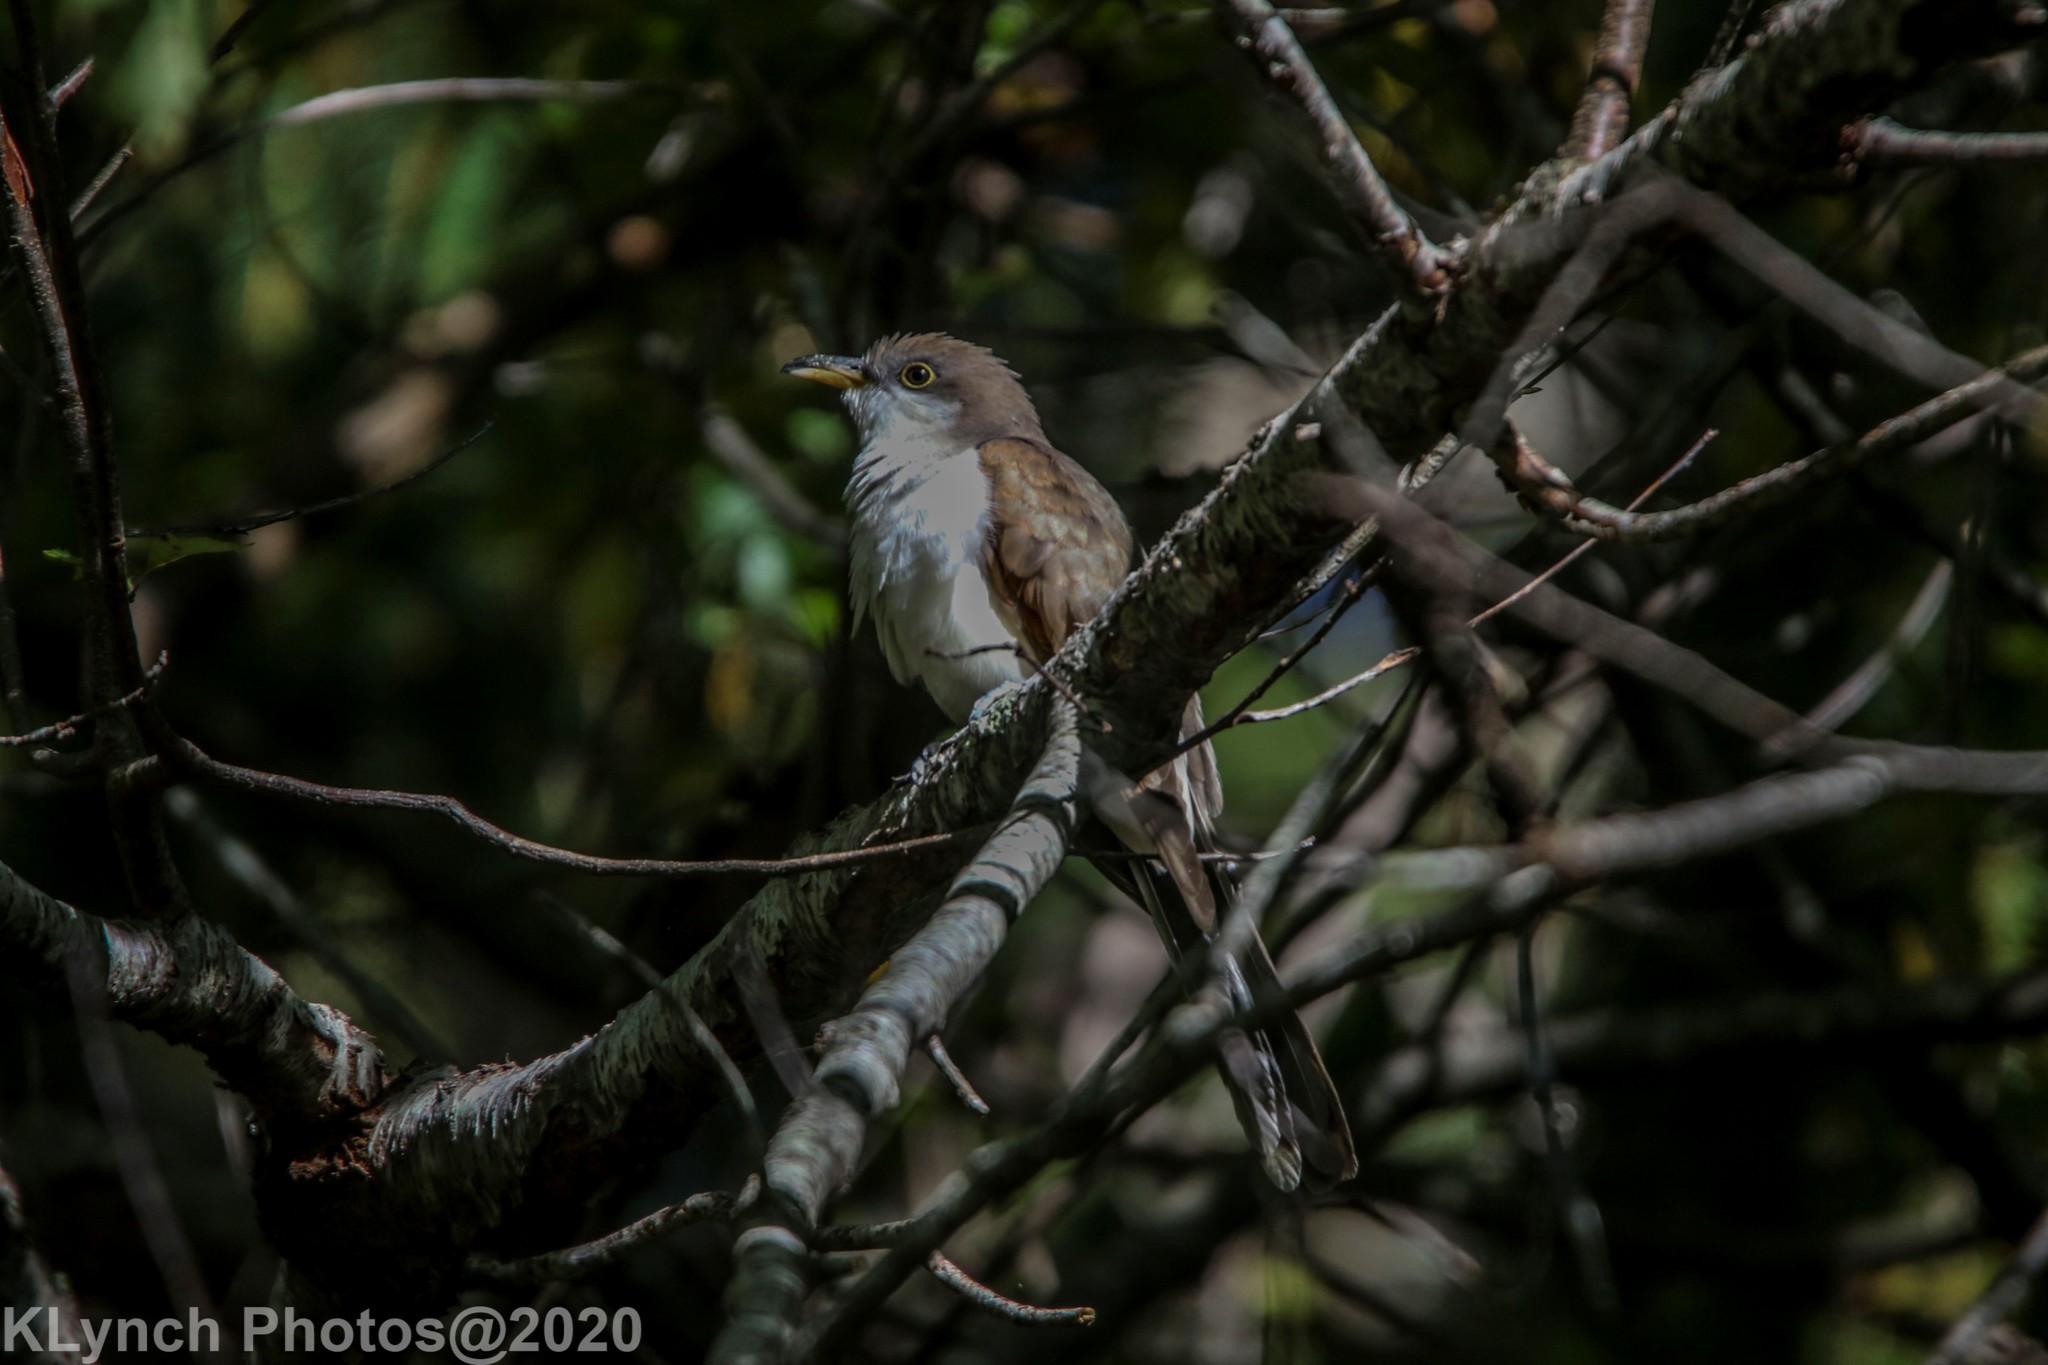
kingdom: Animalia
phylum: Chordata
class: Aves
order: Cuculiformes
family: Cuculidae
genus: Coccyzus
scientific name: Coccyzus americanus
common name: Yellow-billed cuckoo
